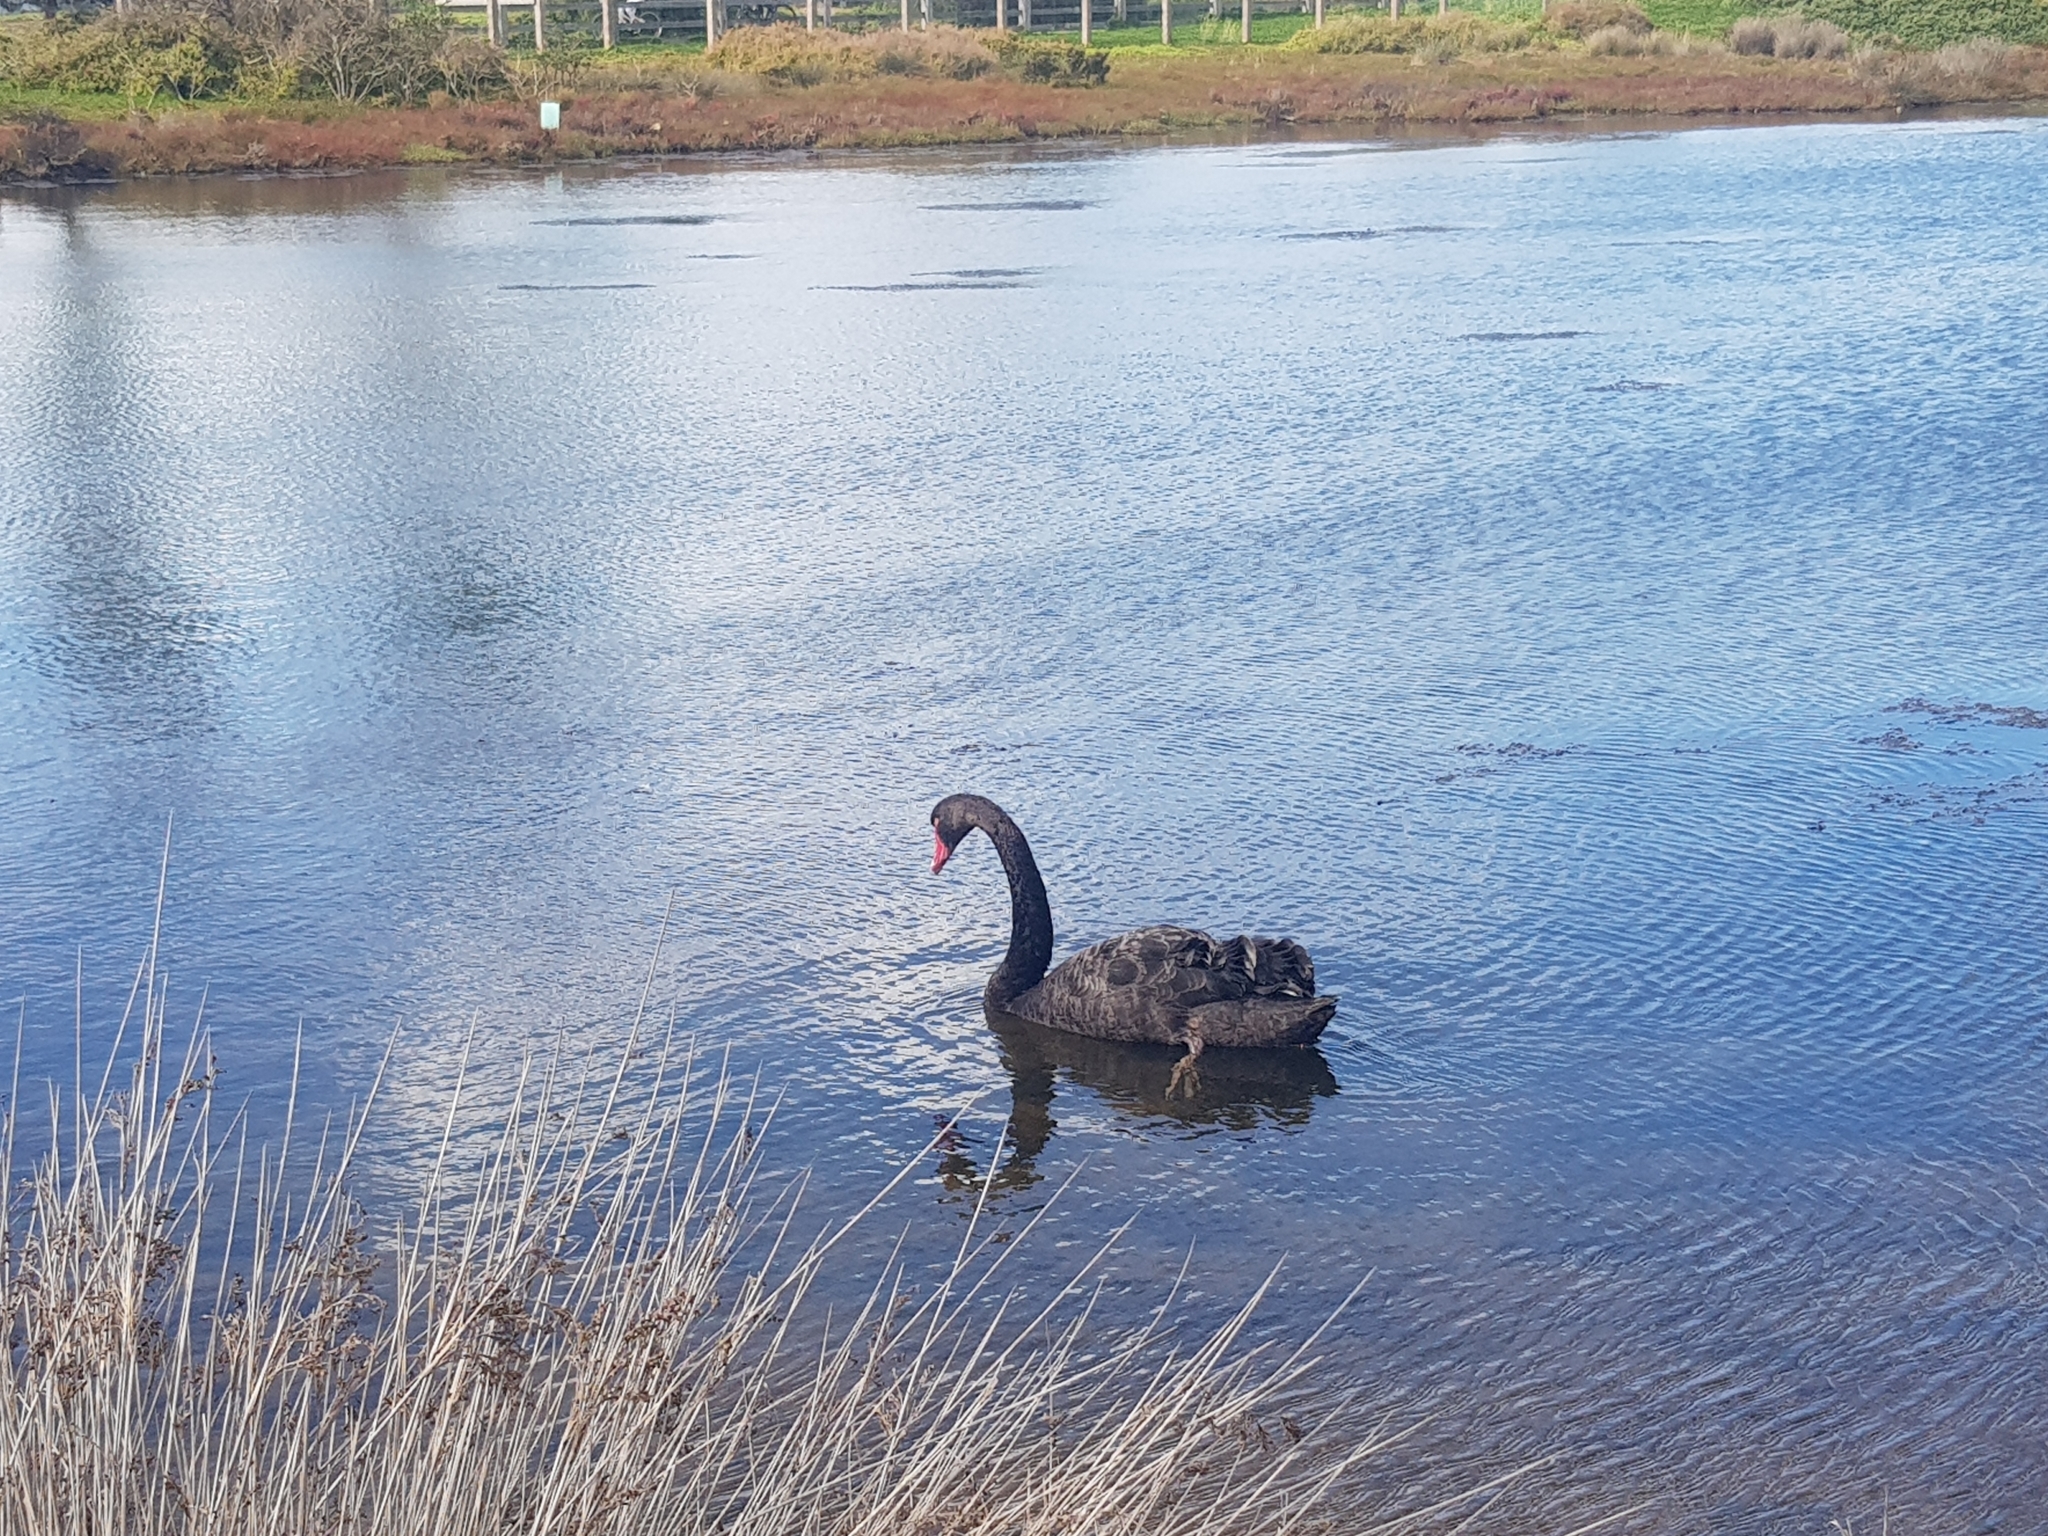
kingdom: Animalia
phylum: Chordata
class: Aves
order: Anseriformes
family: Anatidae
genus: Cygnus
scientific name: Cygnus atratus
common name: Black swan
